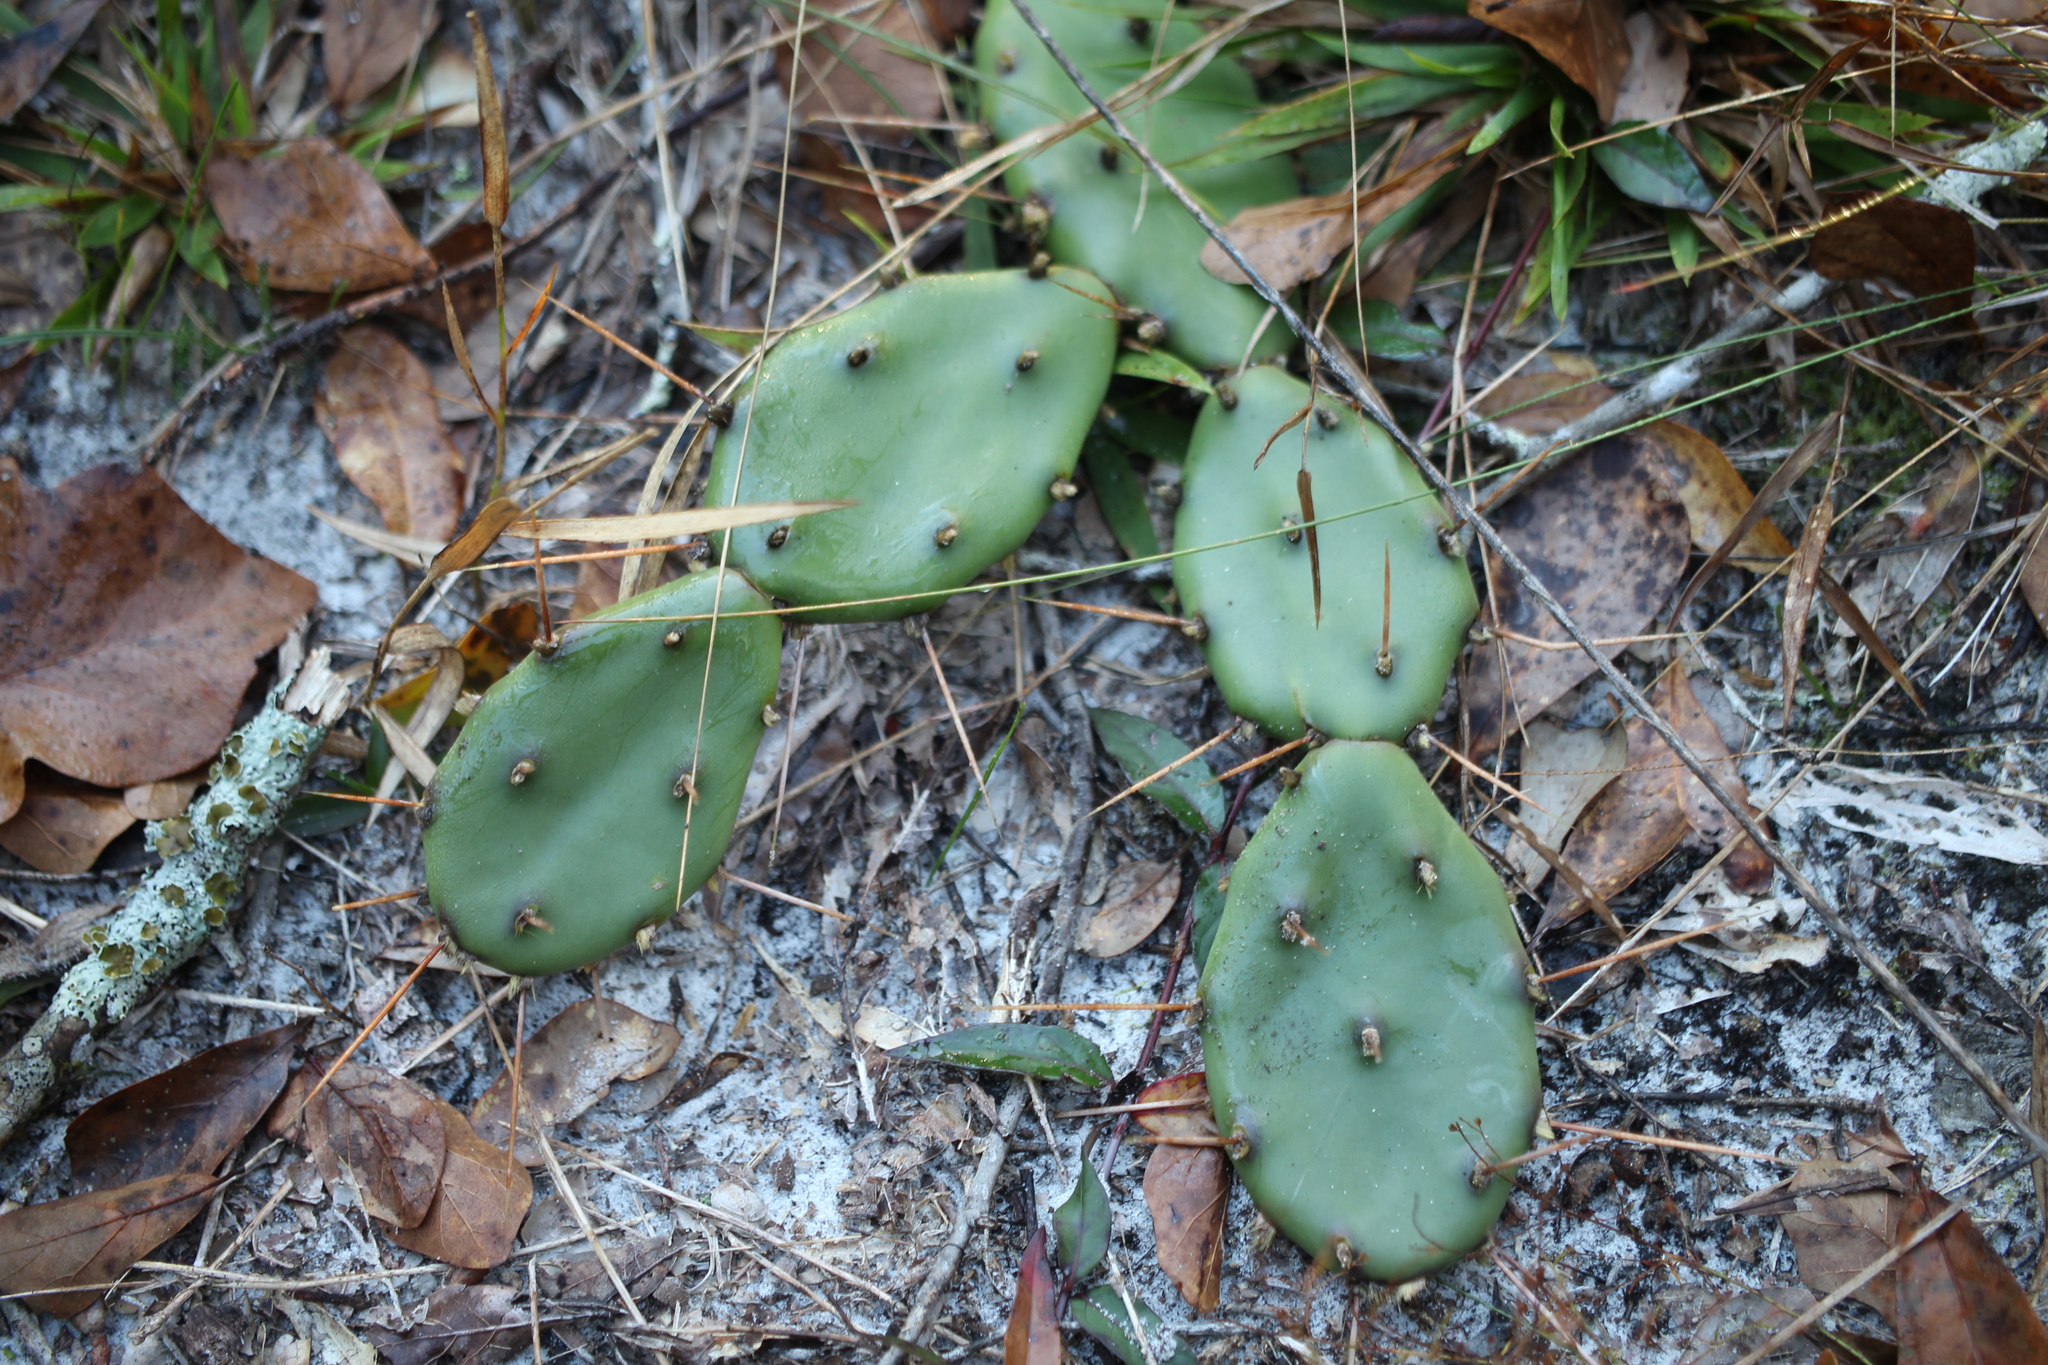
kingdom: Plantae
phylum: Tracheophyta
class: Magnoliopsida
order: Caryophyllales
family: Cactaceae
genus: Opuntia
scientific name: Opuntia mesacantha
